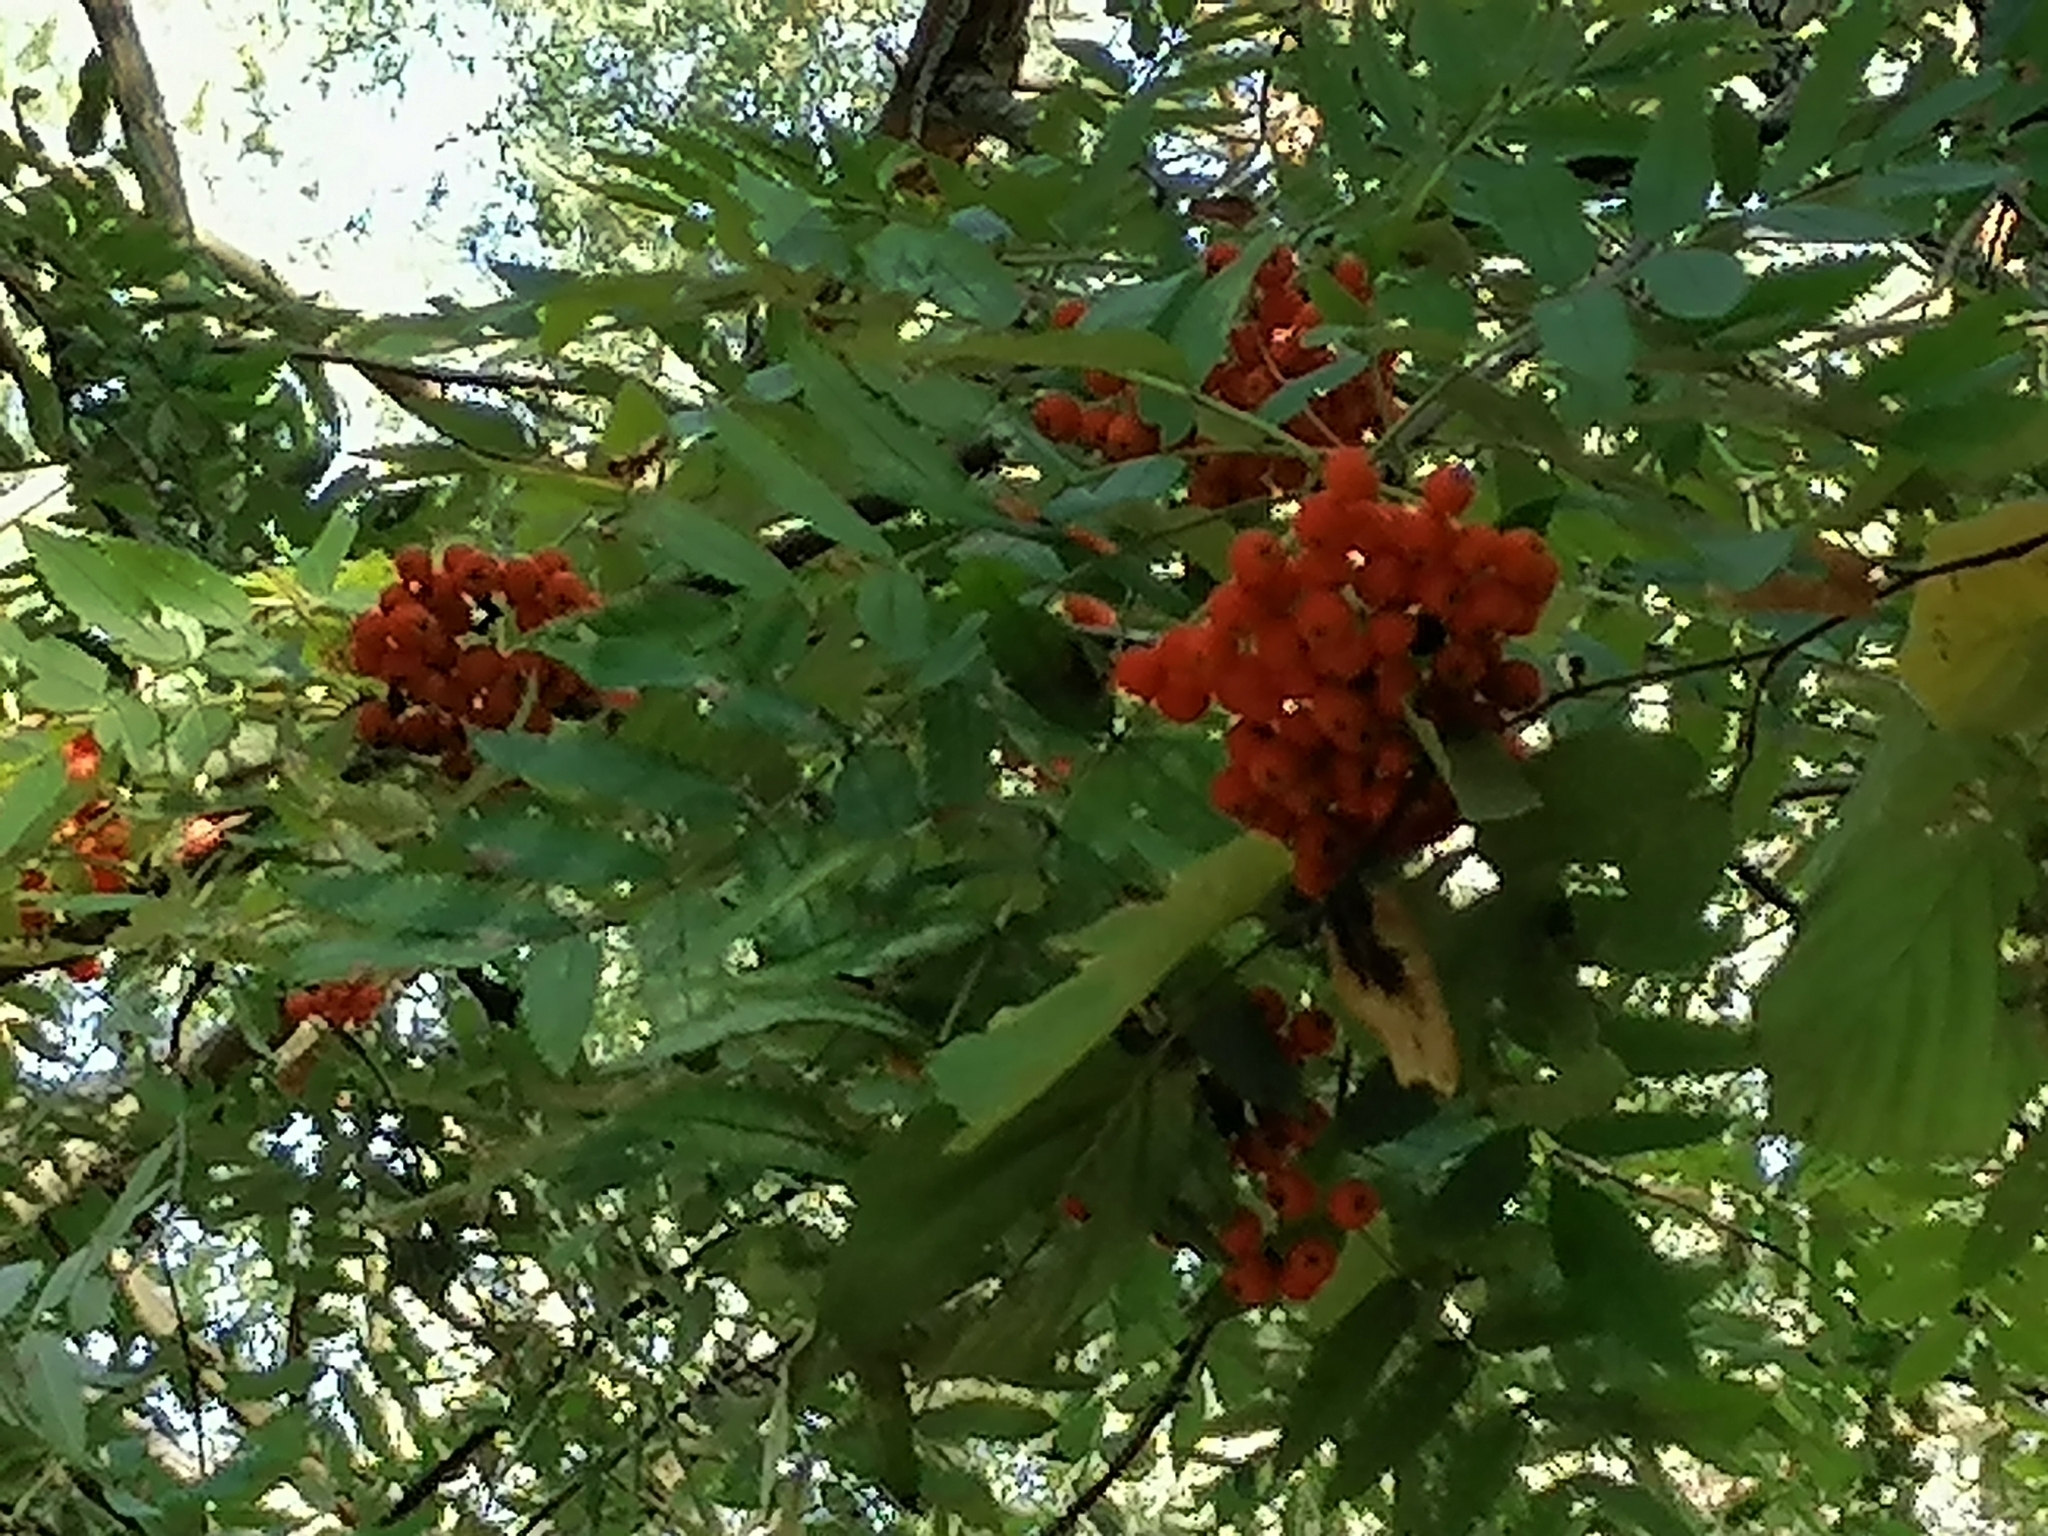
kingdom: Plantae
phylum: Tracheophyta
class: Magnoliopsida
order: Rosales
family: Rosaceae
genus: Sorbus
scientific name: Sorbus aucuparia
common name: Rowan
